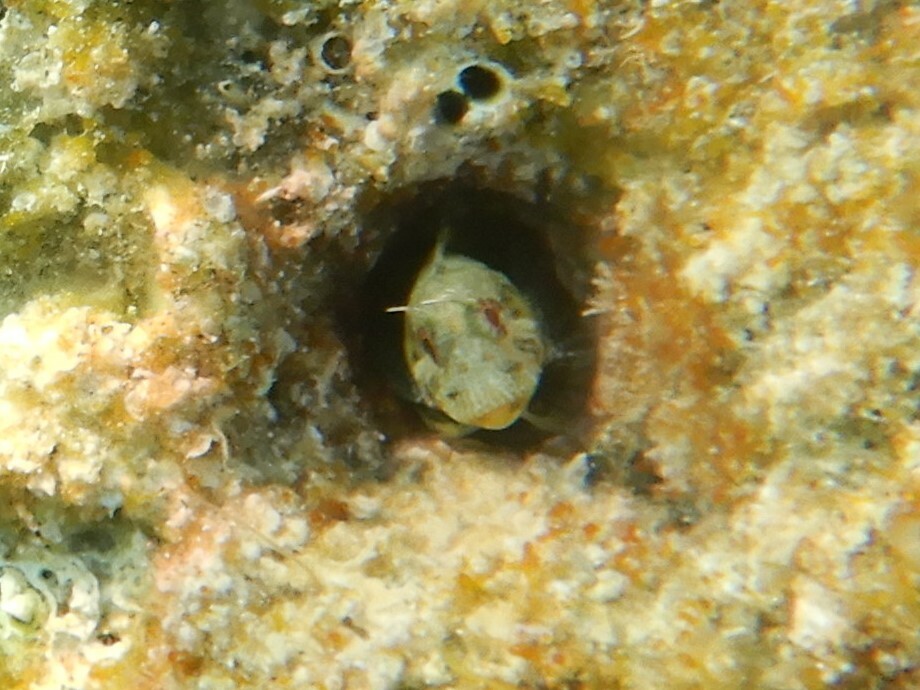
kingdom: Animalia
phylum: Chordata
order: Perciformes
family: Blenniidae
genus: Parablennius
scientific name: Parablennius incognitus
